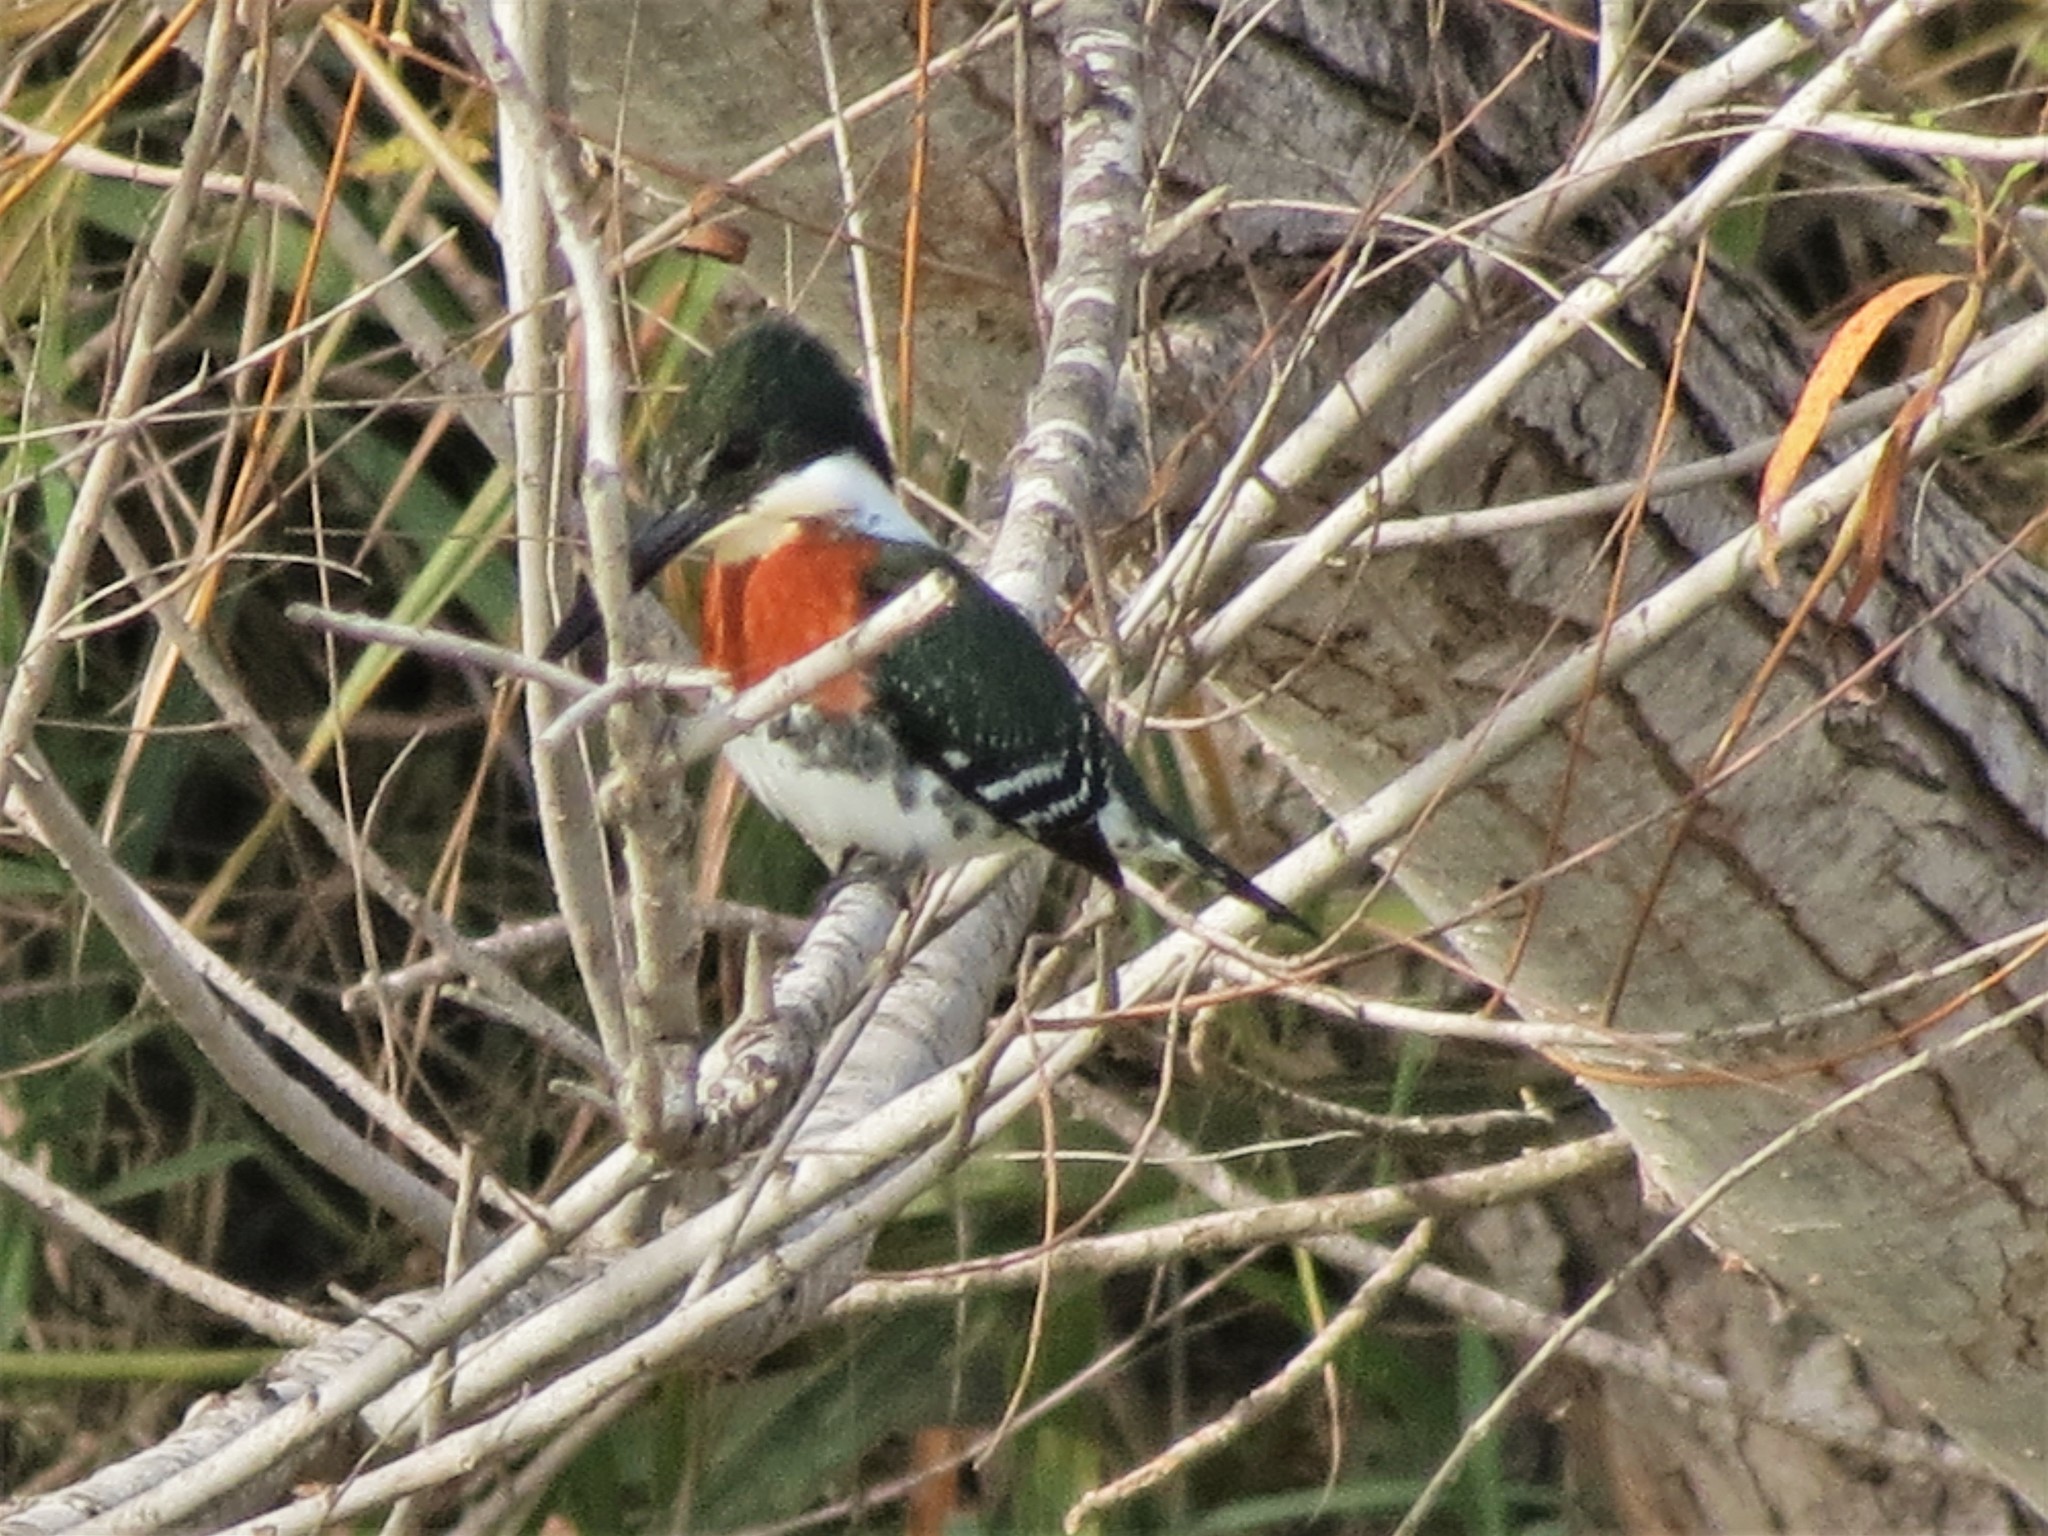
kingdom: Animalia
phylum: Chordata
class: Aves
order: Coraciiformes
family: Alcedinidae
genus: Chloroceryle
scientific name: Chloroceryle americana
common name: Green kingfisher
